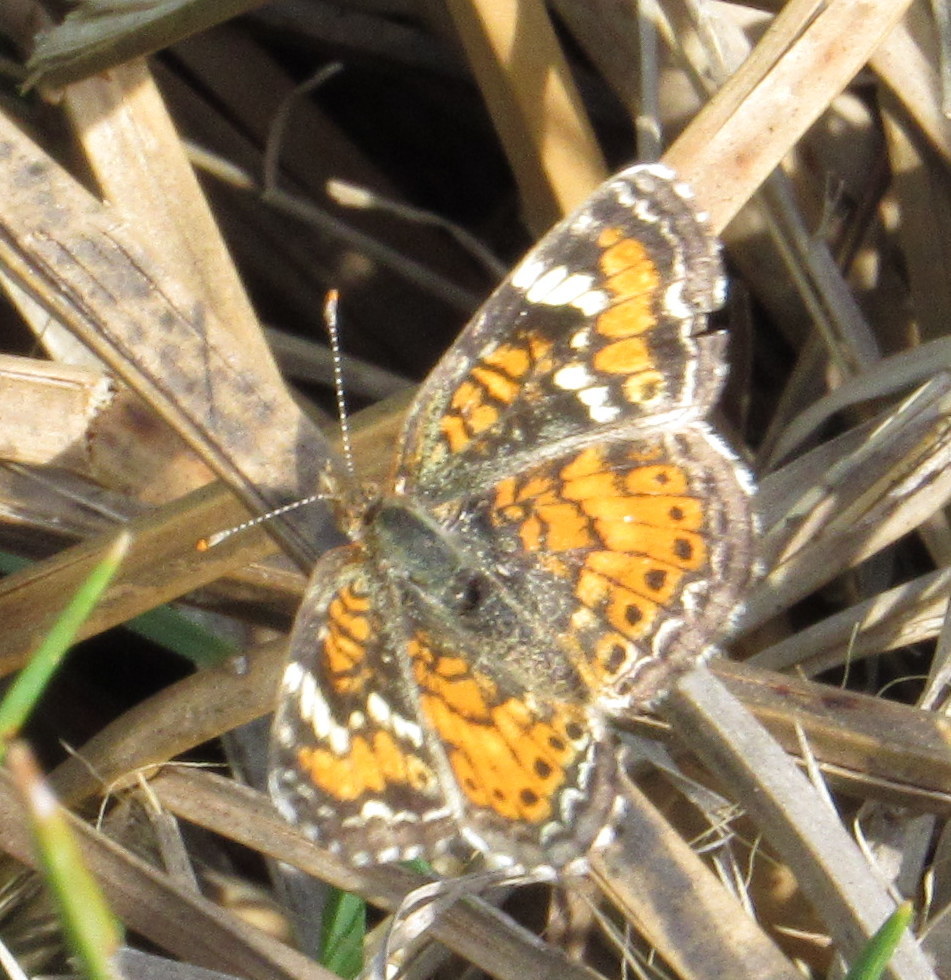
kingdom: Animalia
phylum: Arthropoda
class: Insecta
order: Lepidoptera
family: Nymphalidae
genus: Phyciodes
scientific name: Phyciodes phaon
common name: Phaon crescent
